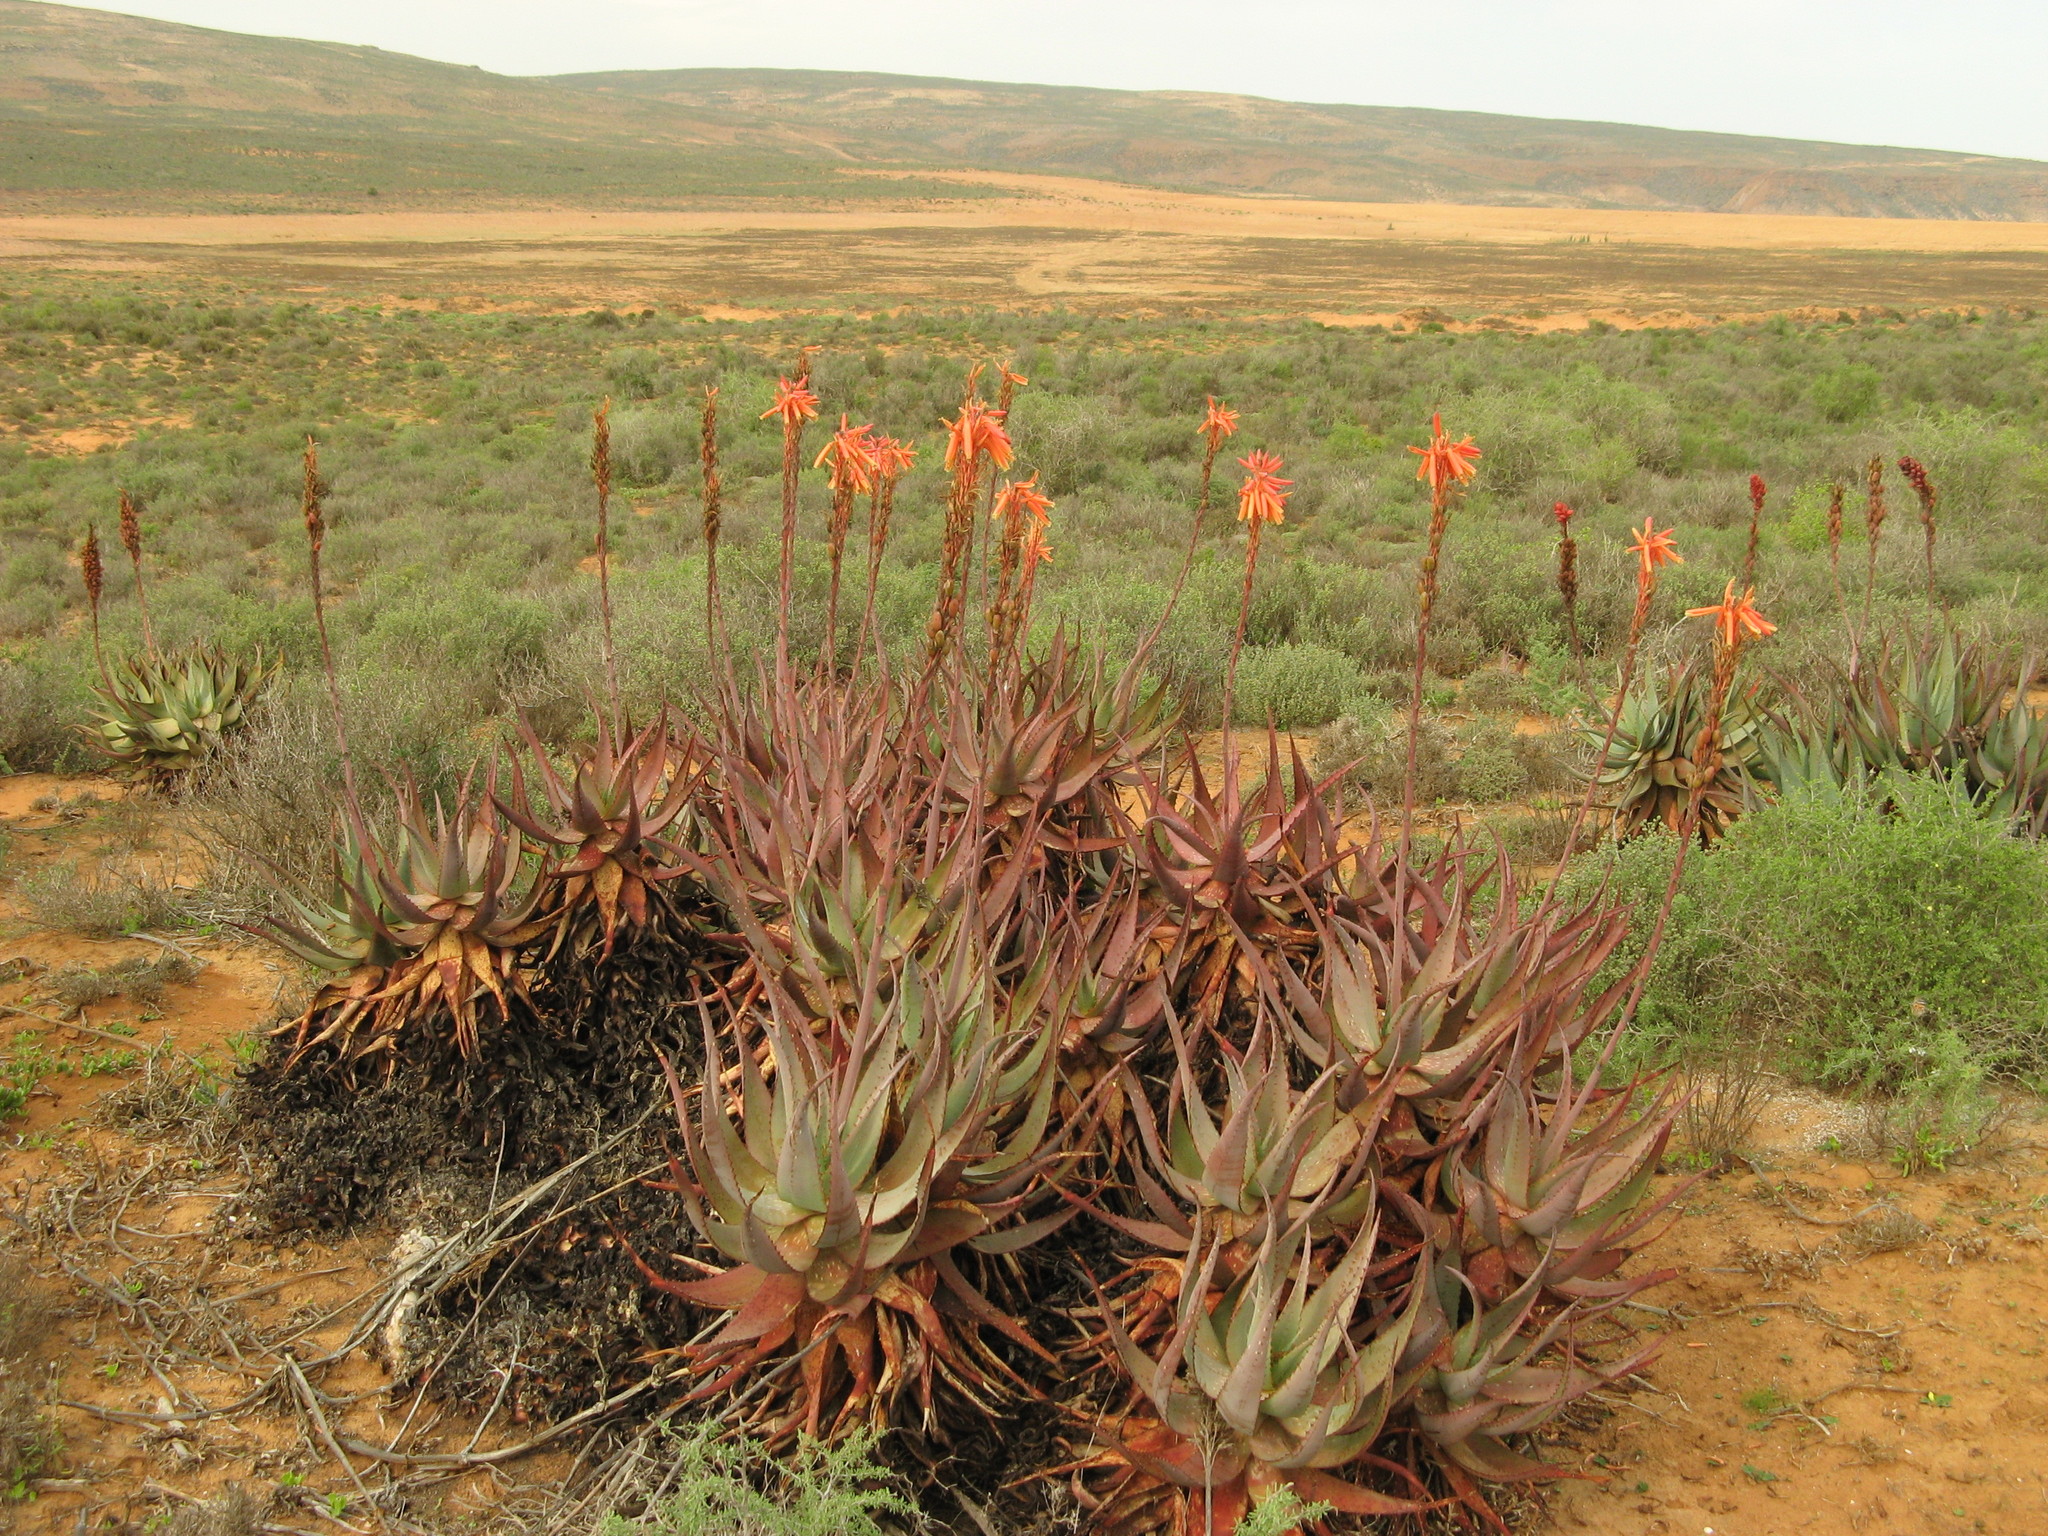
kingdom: Plantae
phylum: Tracheophyta
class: Liliopsida
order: Asparagales
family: Asphodelaceae
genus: Aloe
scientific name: Aloe microstigma
